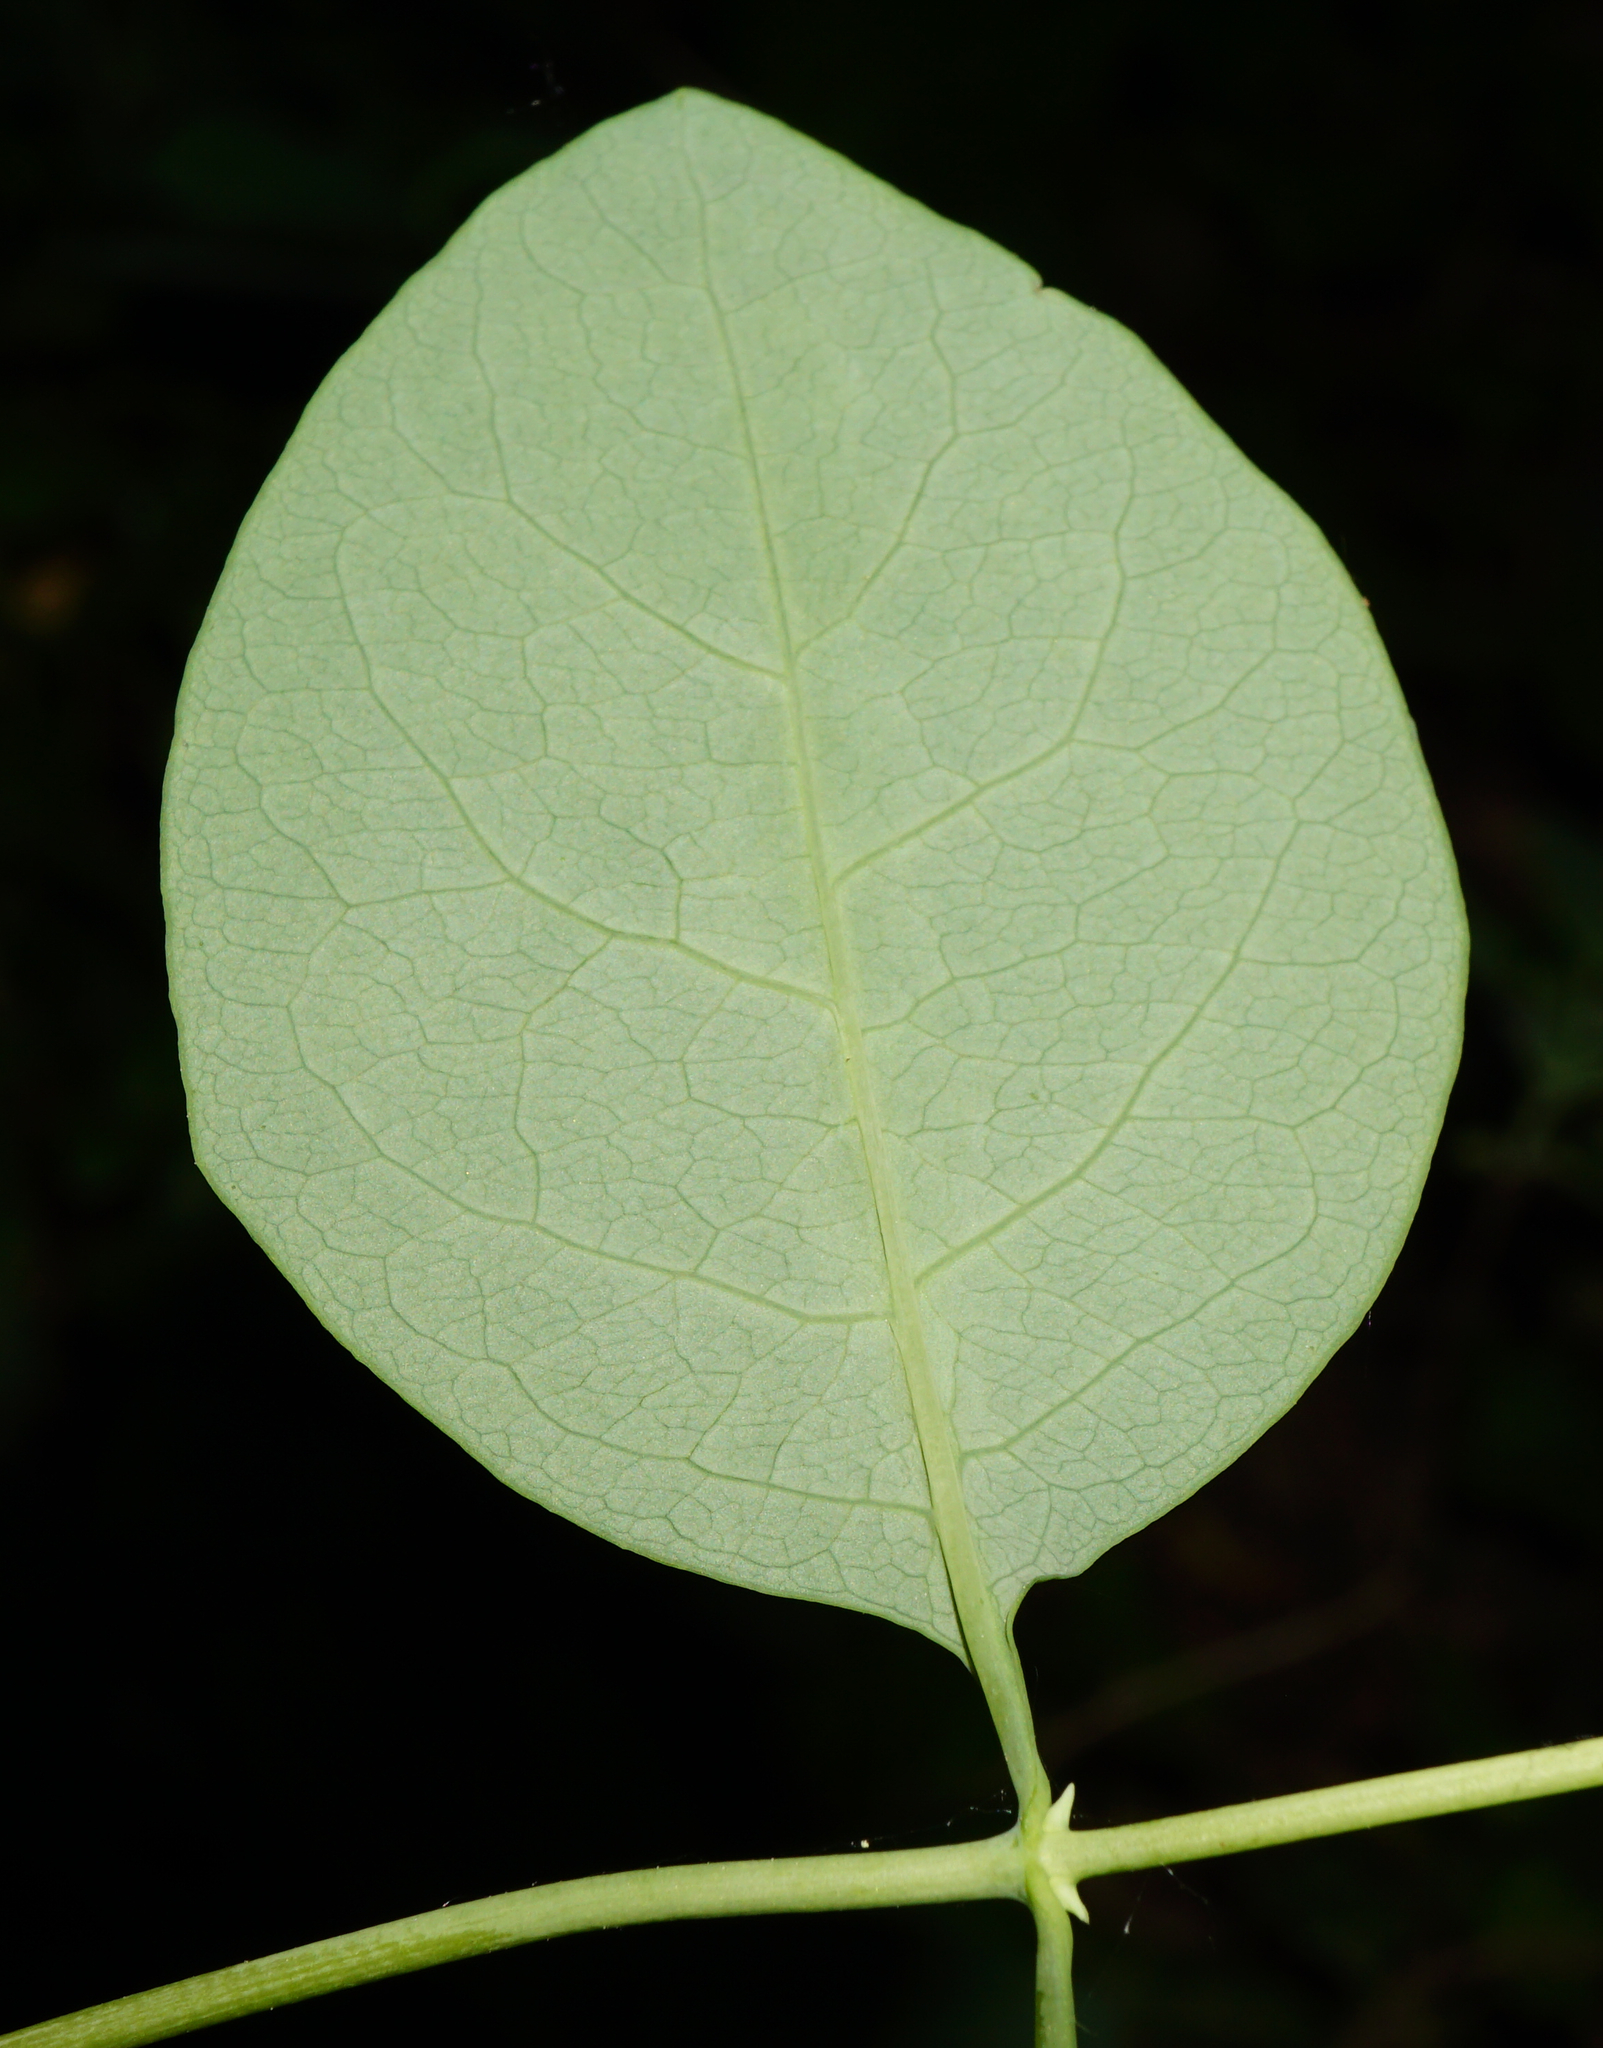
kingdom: Plantae
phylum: Tracheophyta
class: Magnoliopsida
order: Dipsacales
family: Caprifoliaceae
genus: Lonicera
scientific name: Lonicera caprifolium
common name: Perfoliate honeysuckle
